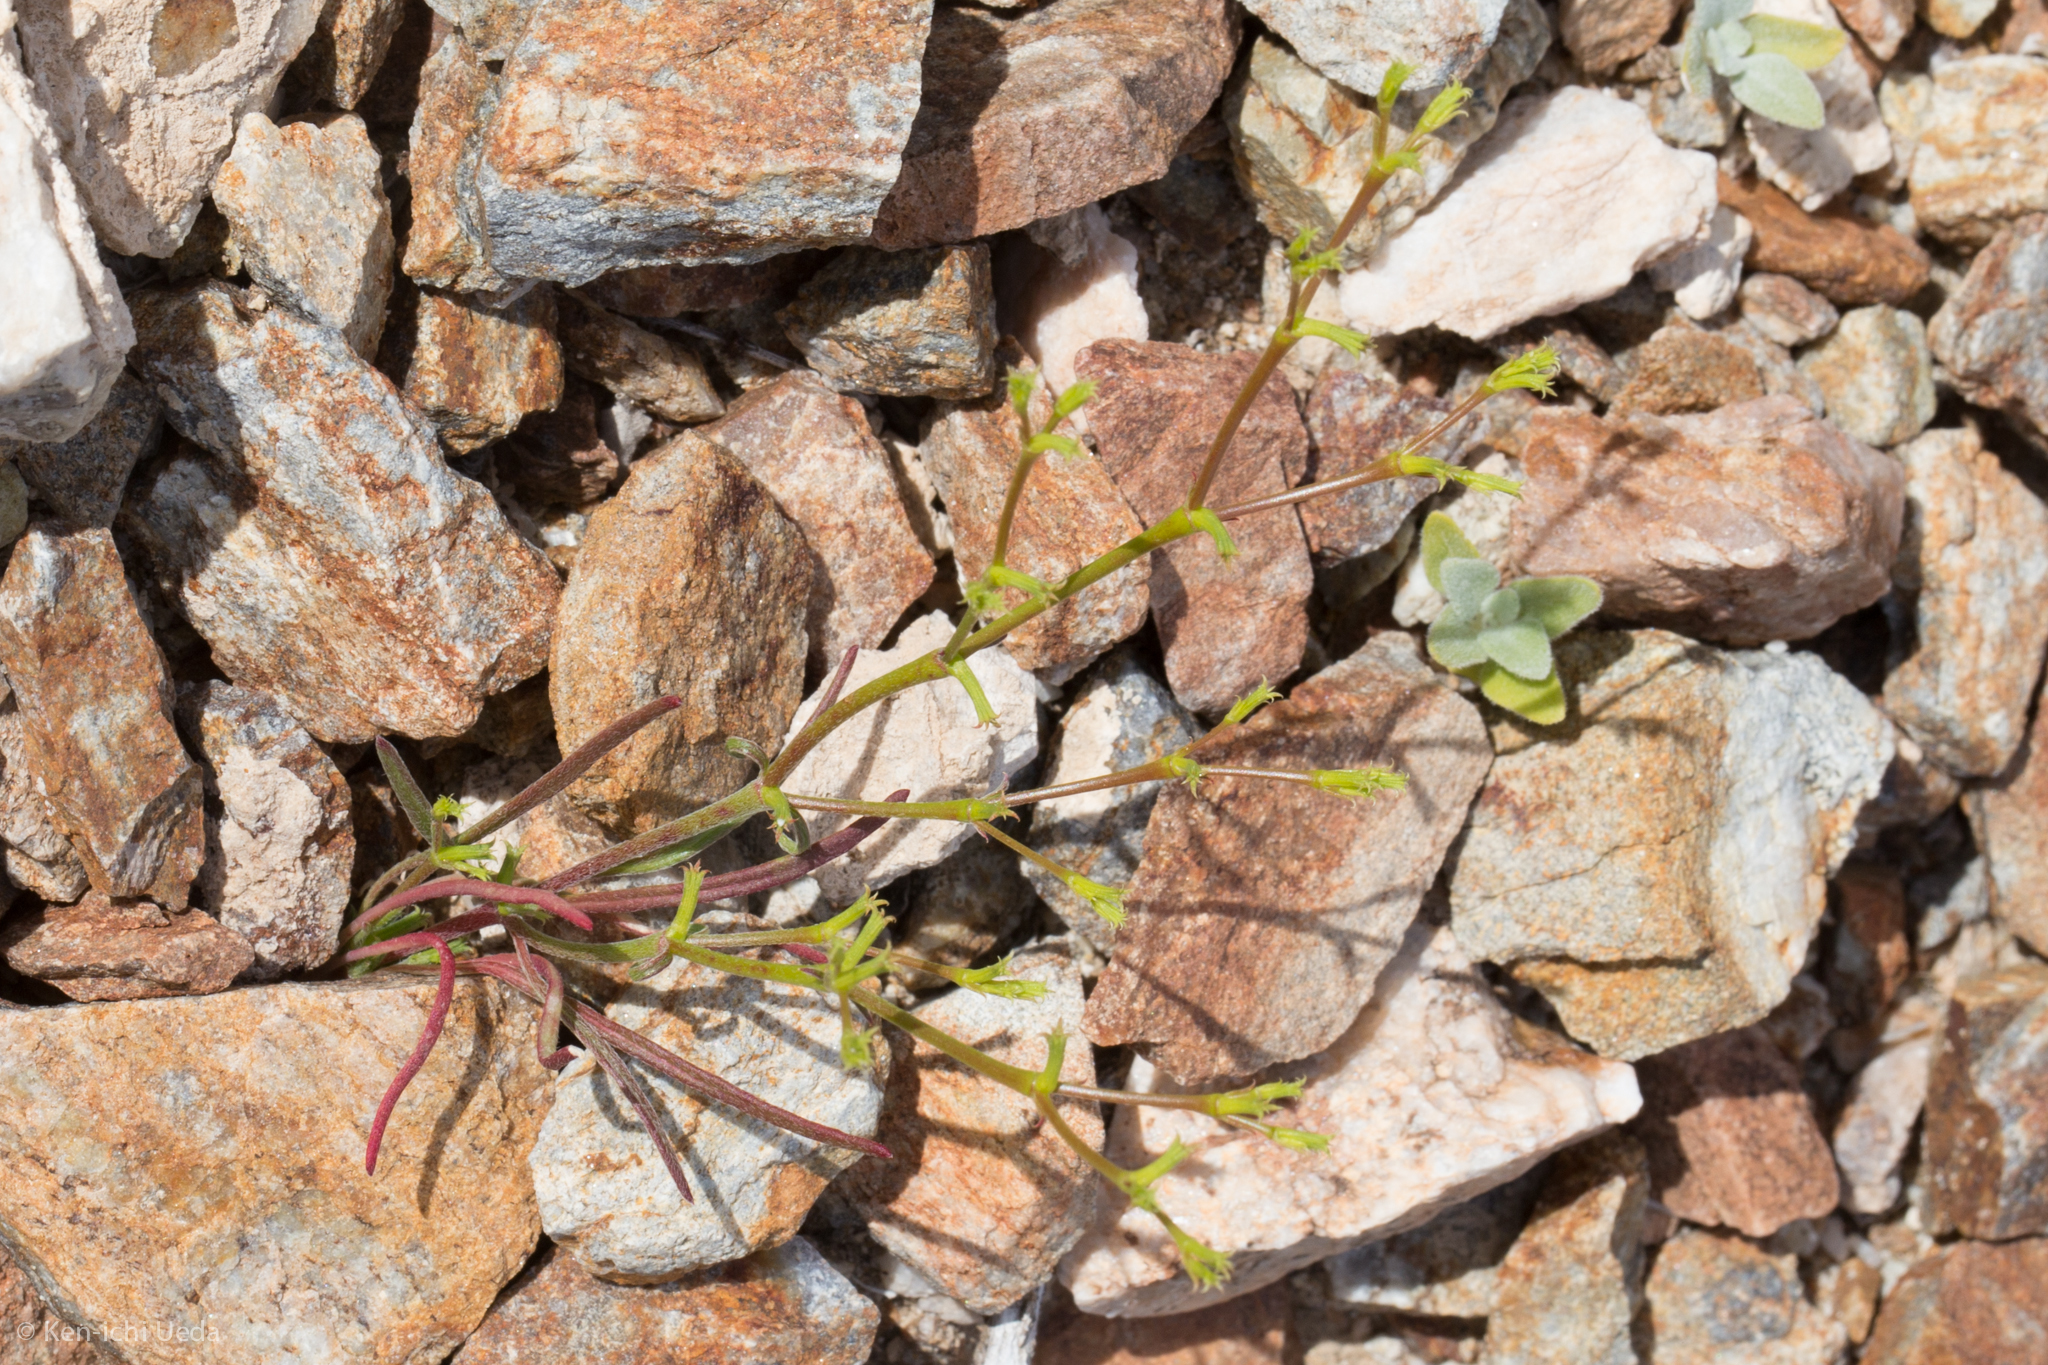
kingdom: Plantae
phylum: Tracheophyta
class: Magnoliopsida
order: Caryophyllales
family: Polygonaceae
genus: Chorizanthe
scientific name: Chorizanthe brevicornu
